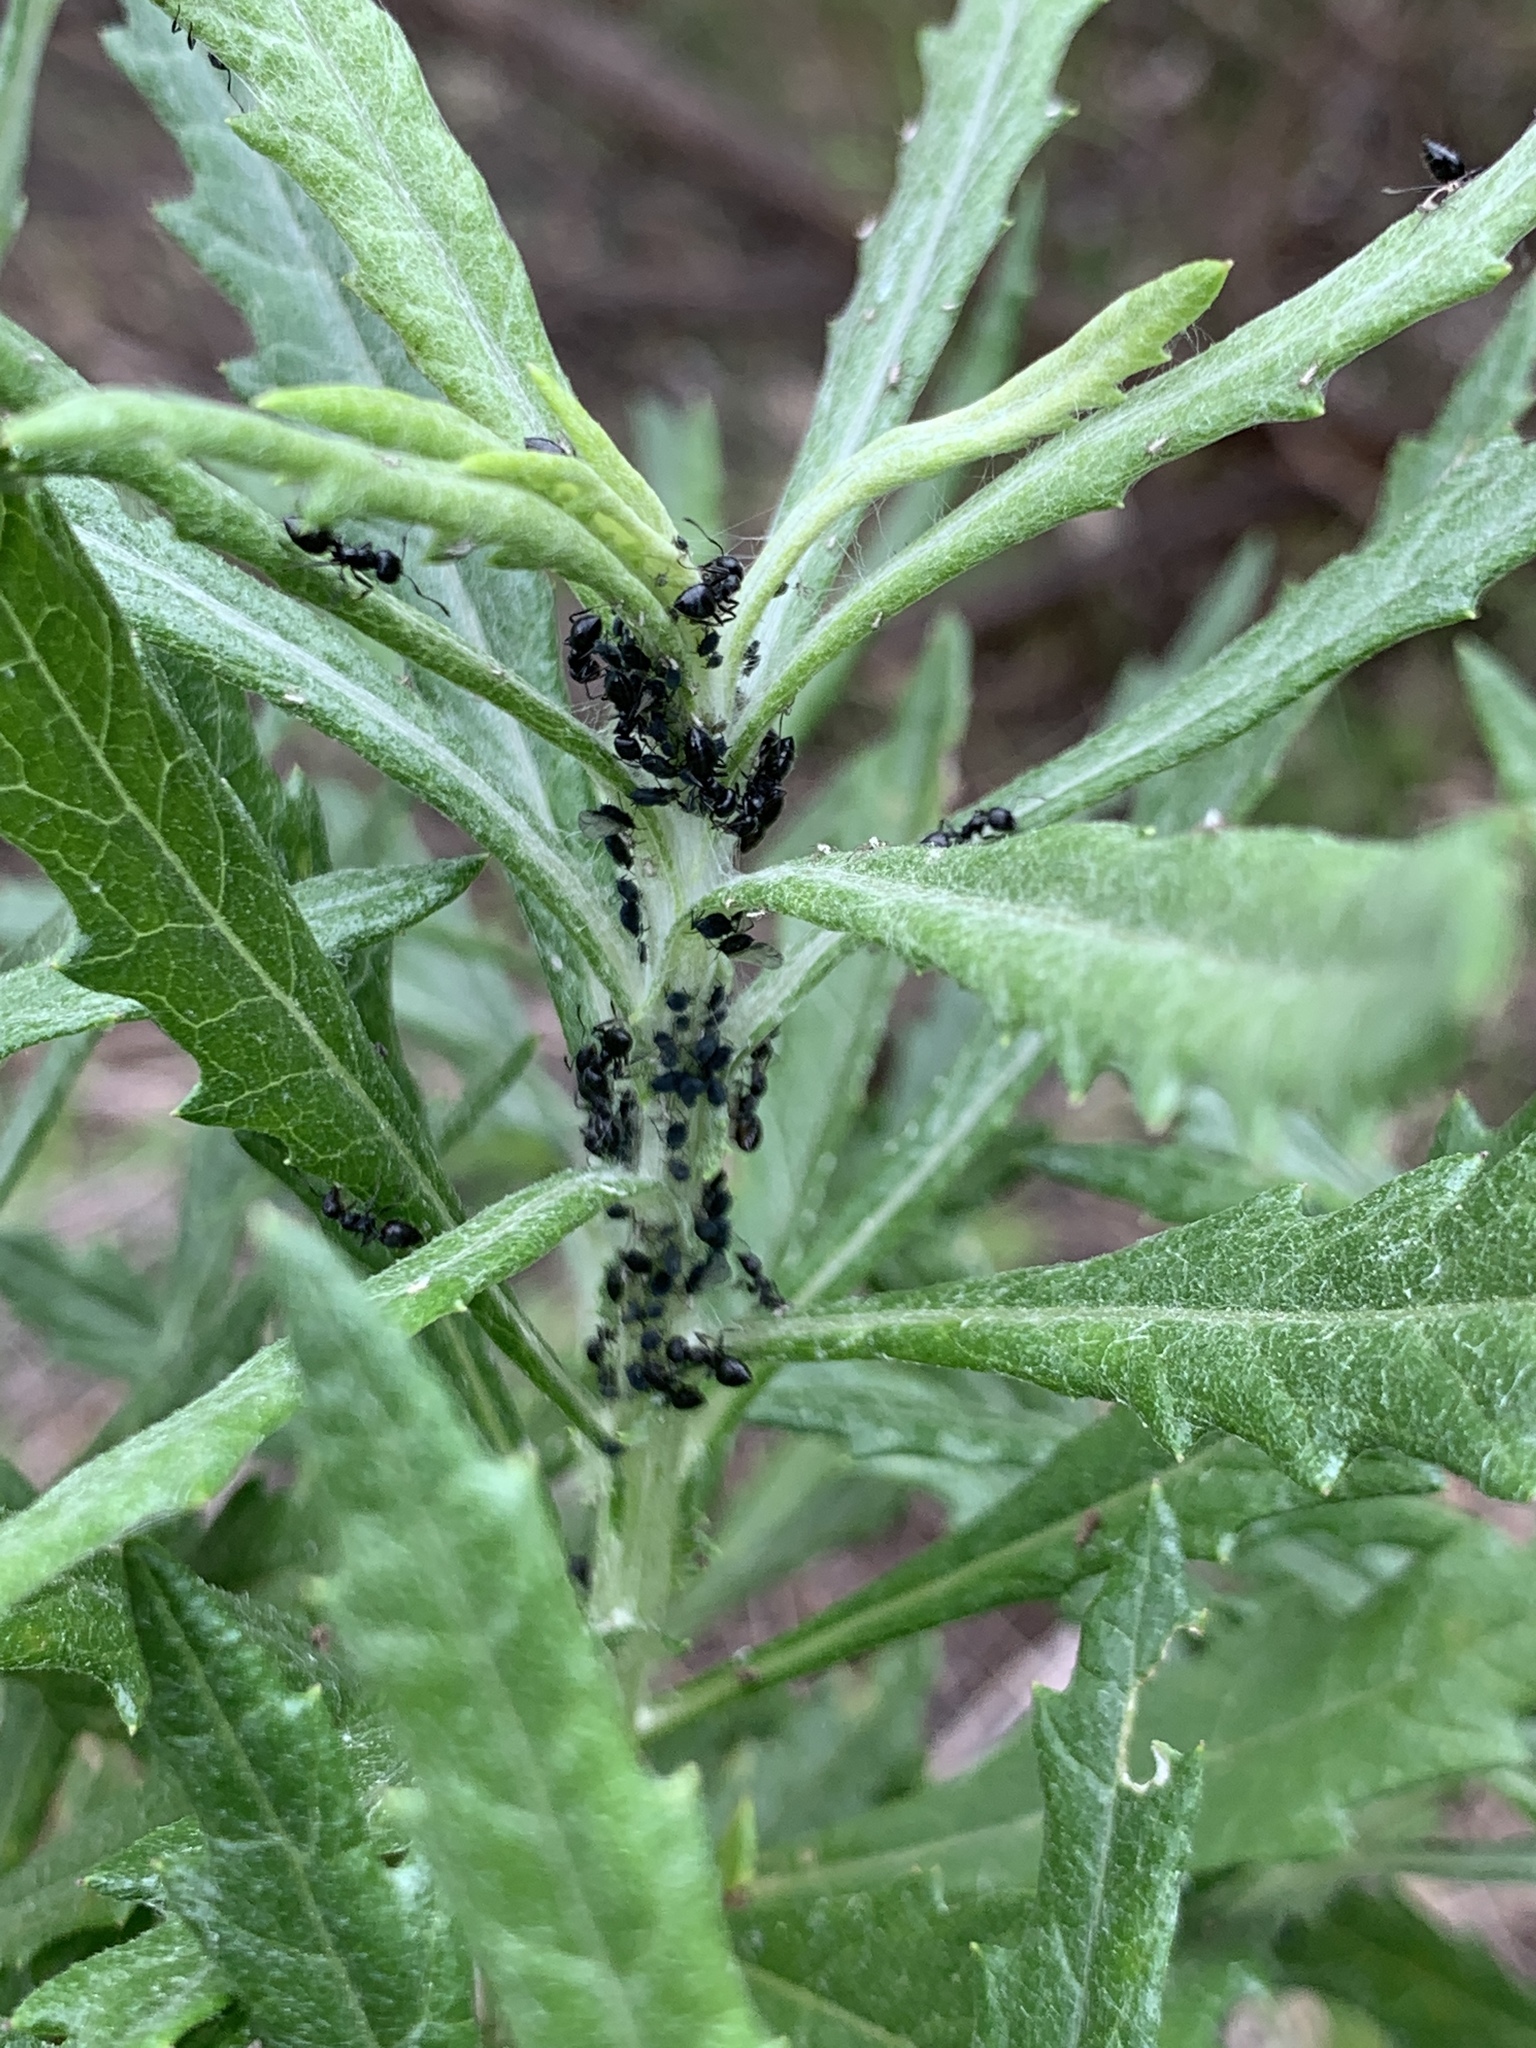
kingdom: Animalia
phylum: Arthropoda
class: Insecta
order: Hymenoptera
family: Formicidae
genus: Crematogaster
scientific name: Crematogaster peringueyi
